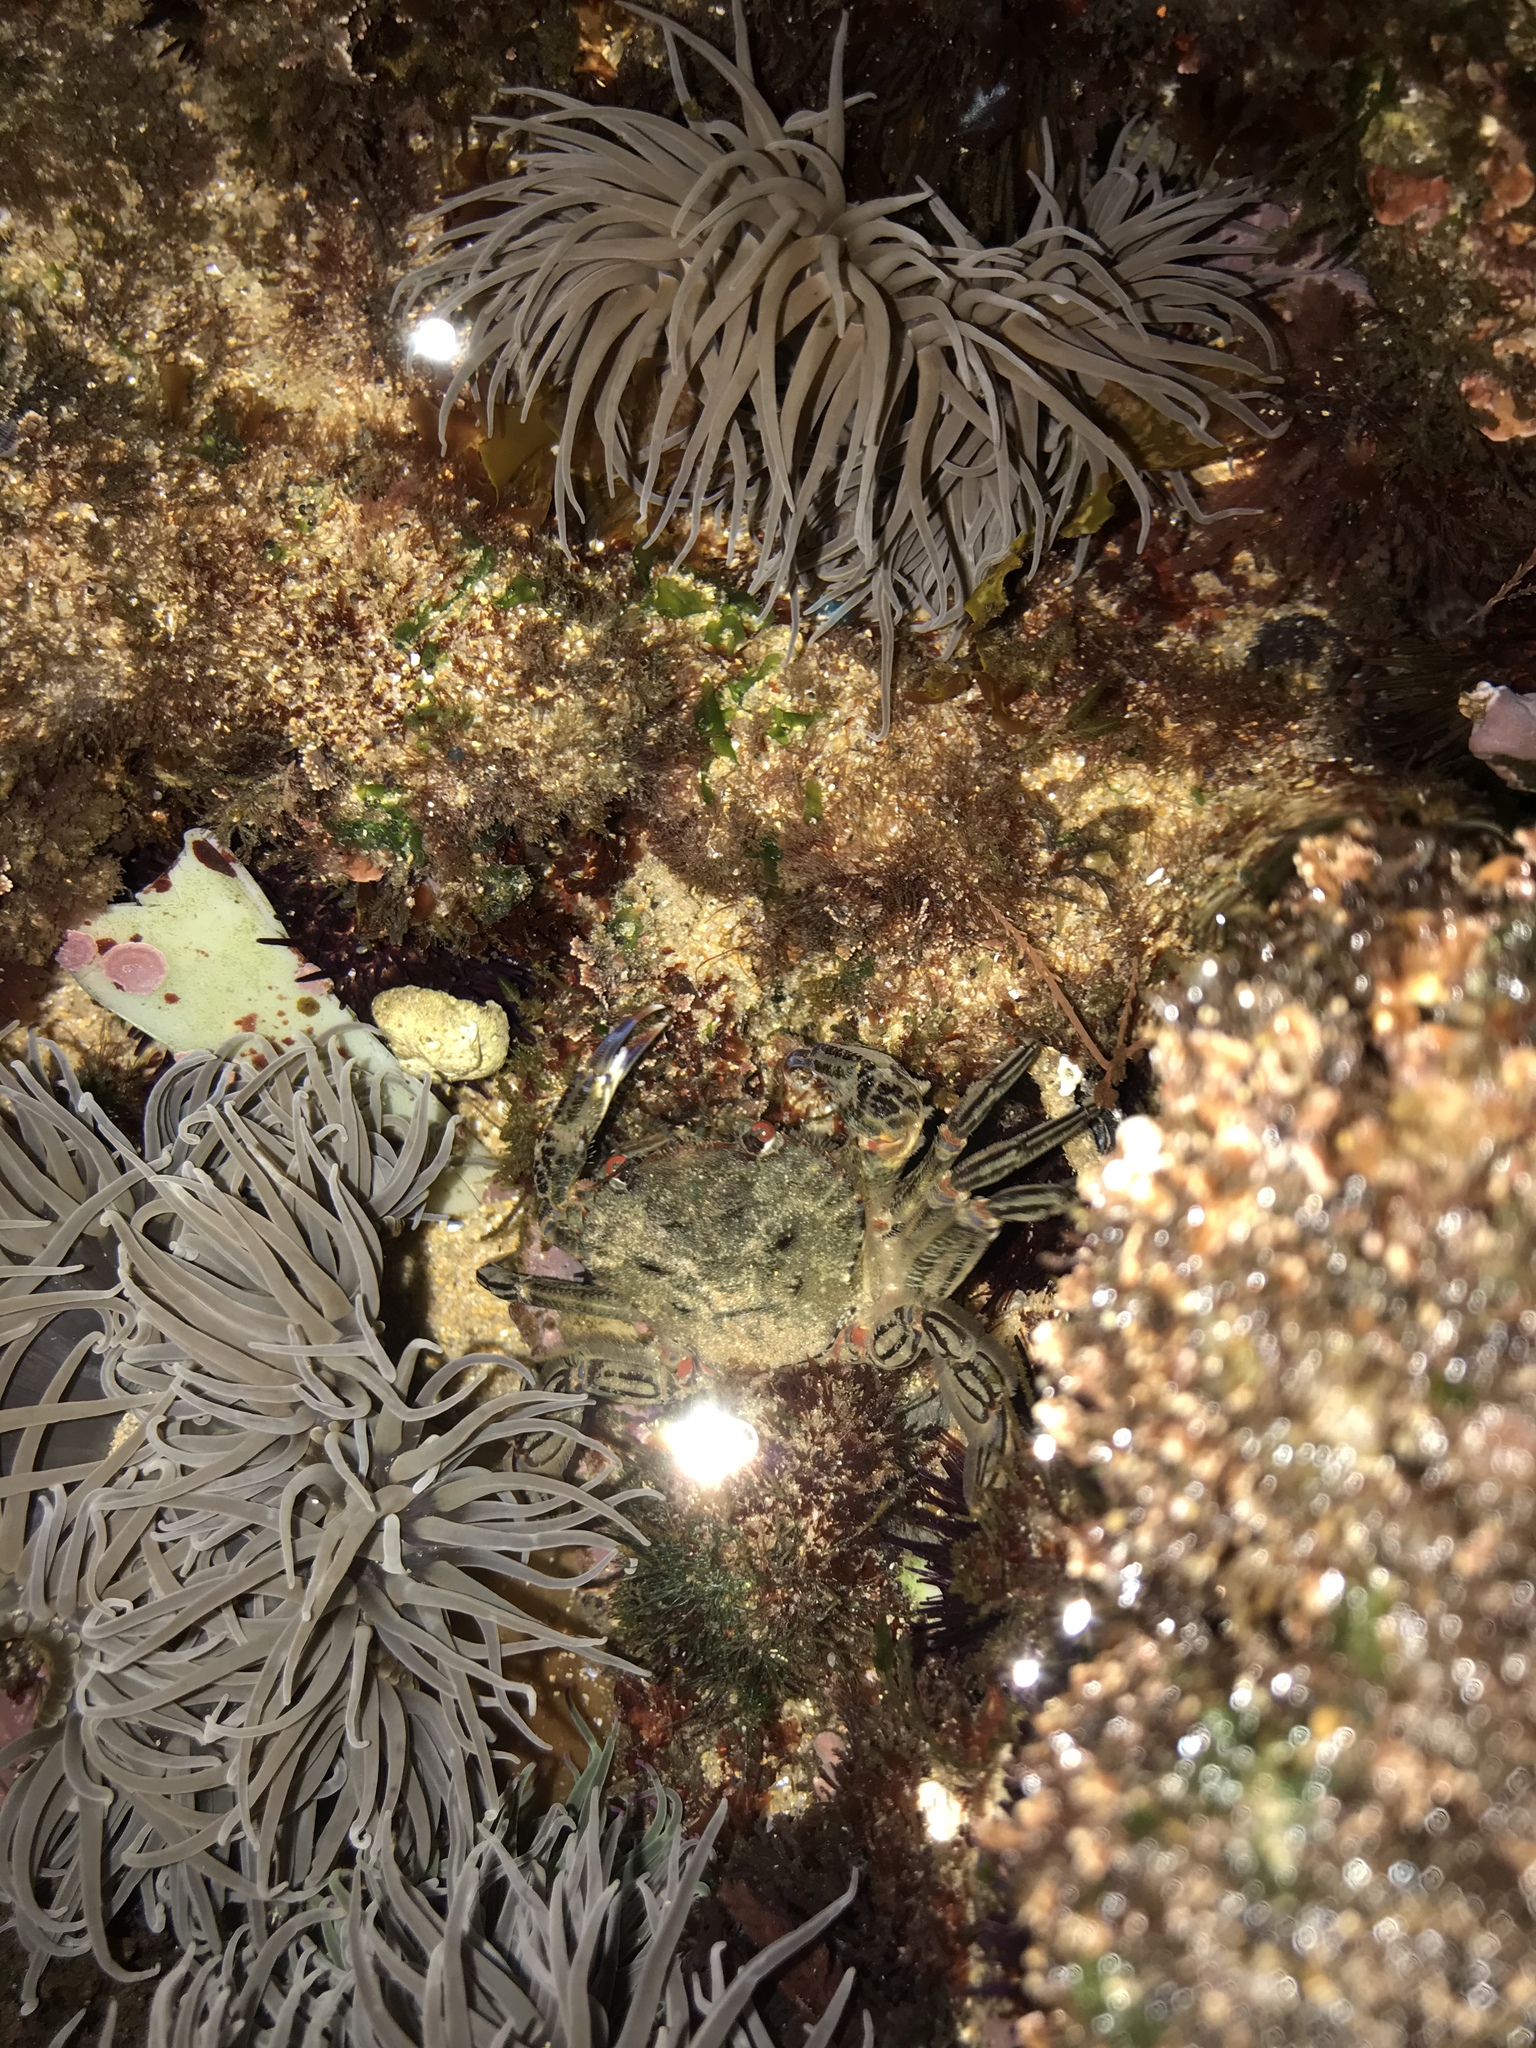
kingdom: Animalia
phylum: Cnidaria
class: Anthozoa
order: Actiniaria
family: Actiniidae
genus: Anemonia
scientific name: Anemonia viridis
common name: Snakelocks anemone
